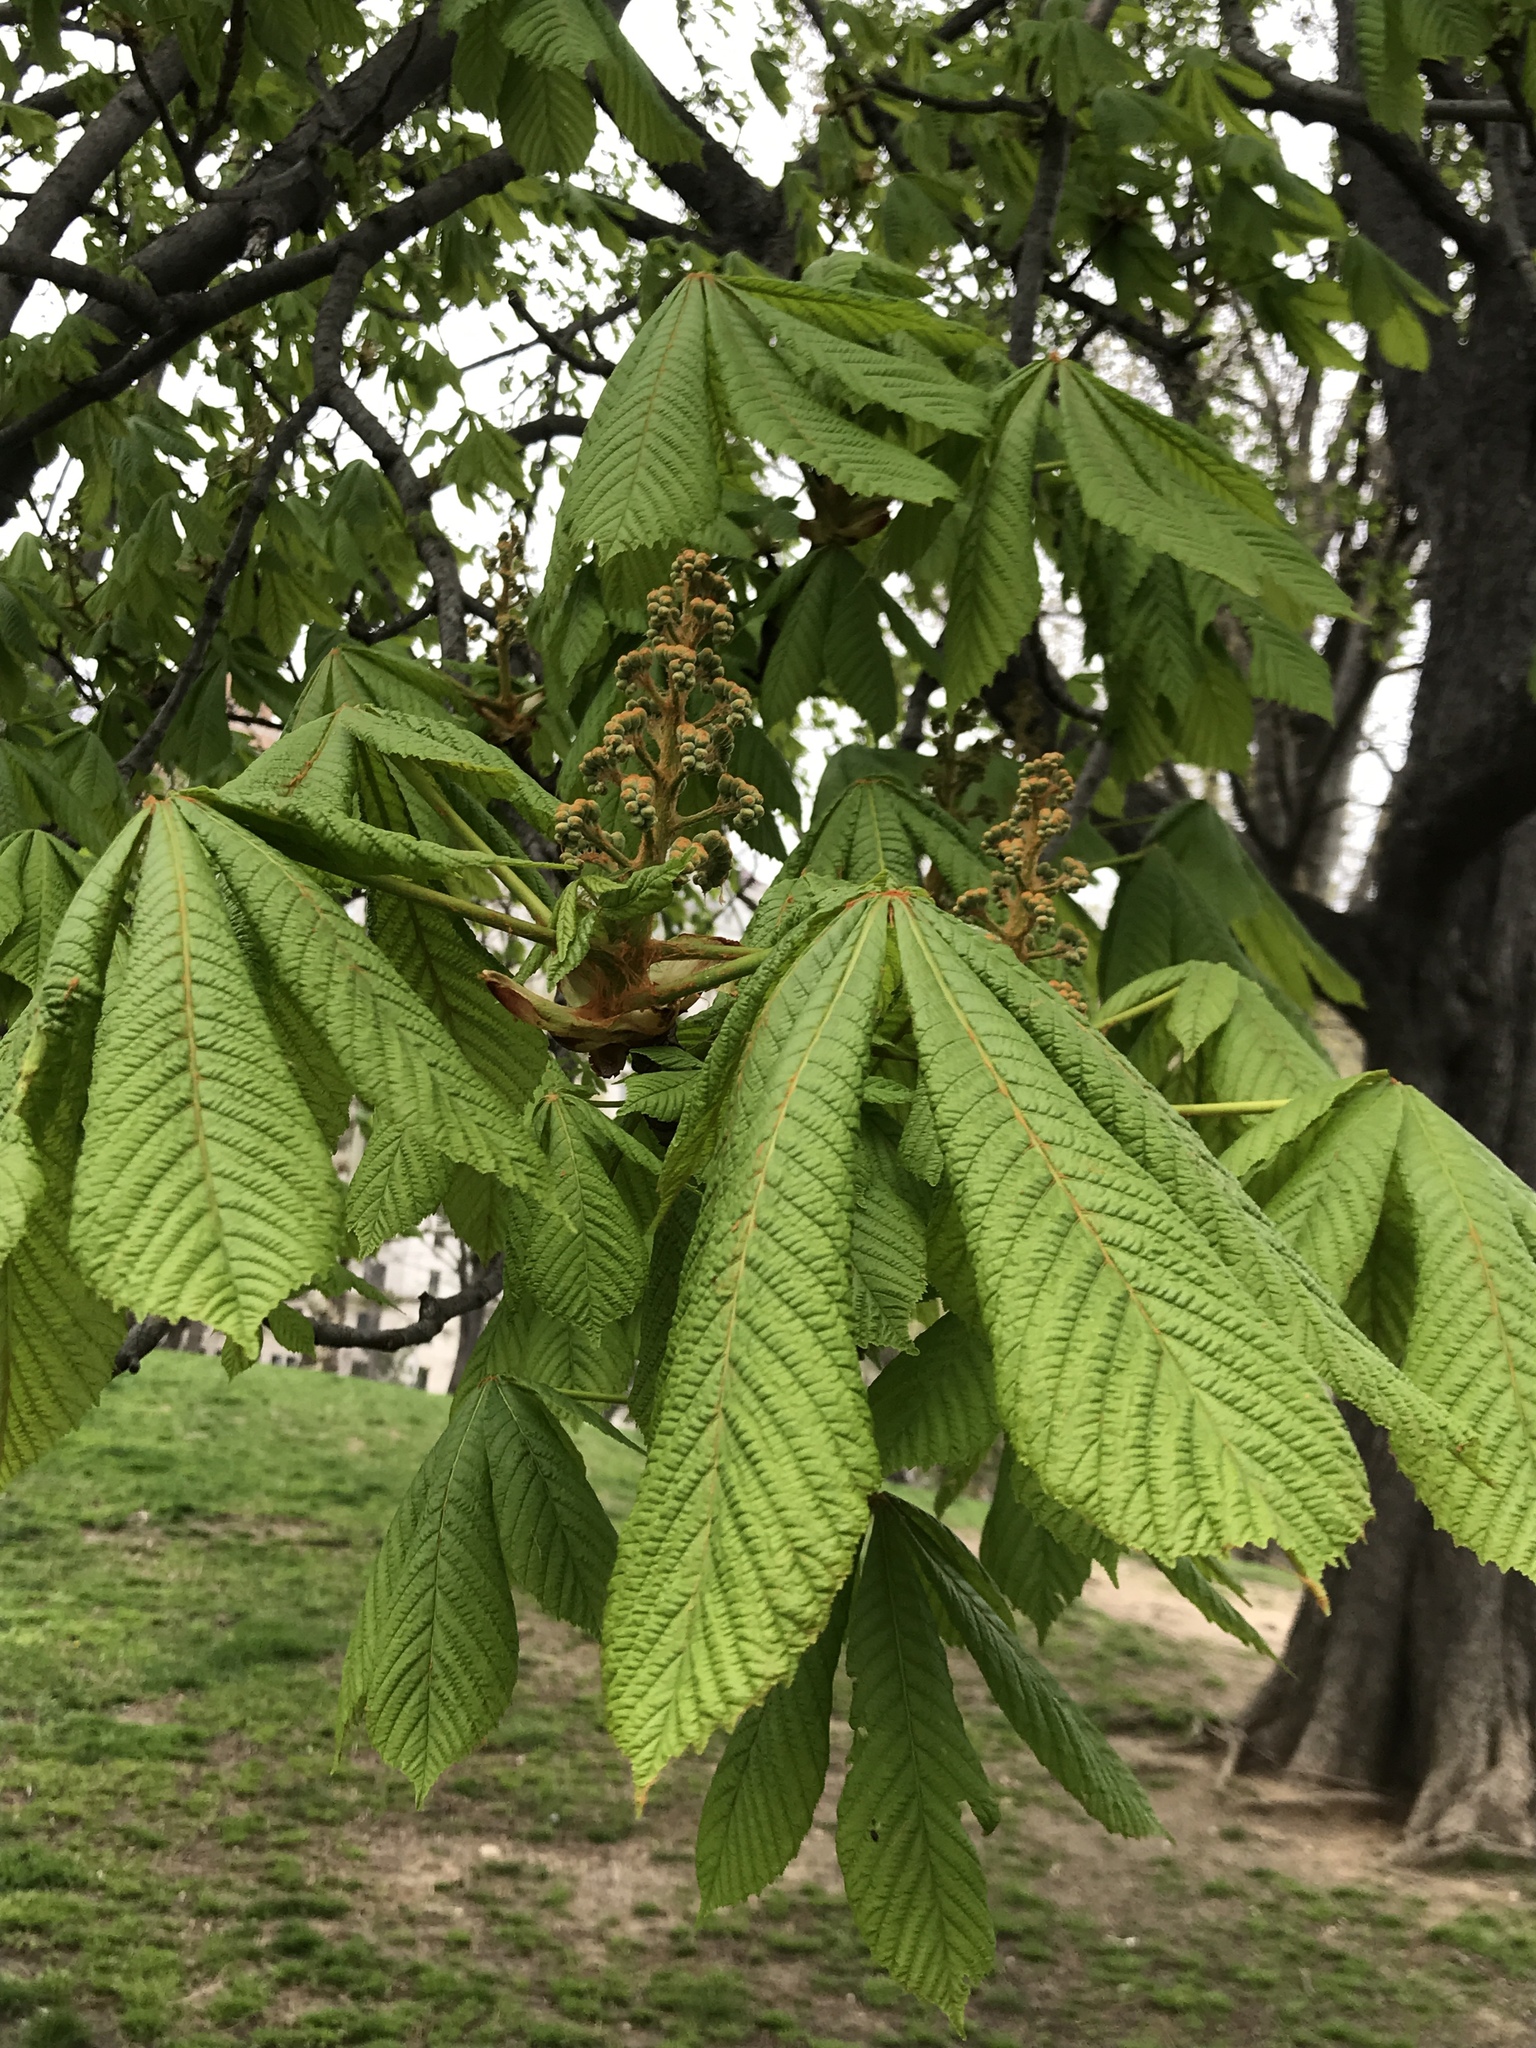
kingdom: Plantae
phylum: Tracheophyta
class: Magnoliopsida
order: Sapindales
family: Sapindaceae
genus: Aesculus
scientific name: Aesculus hippocastanum
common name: Horse-chestnut
